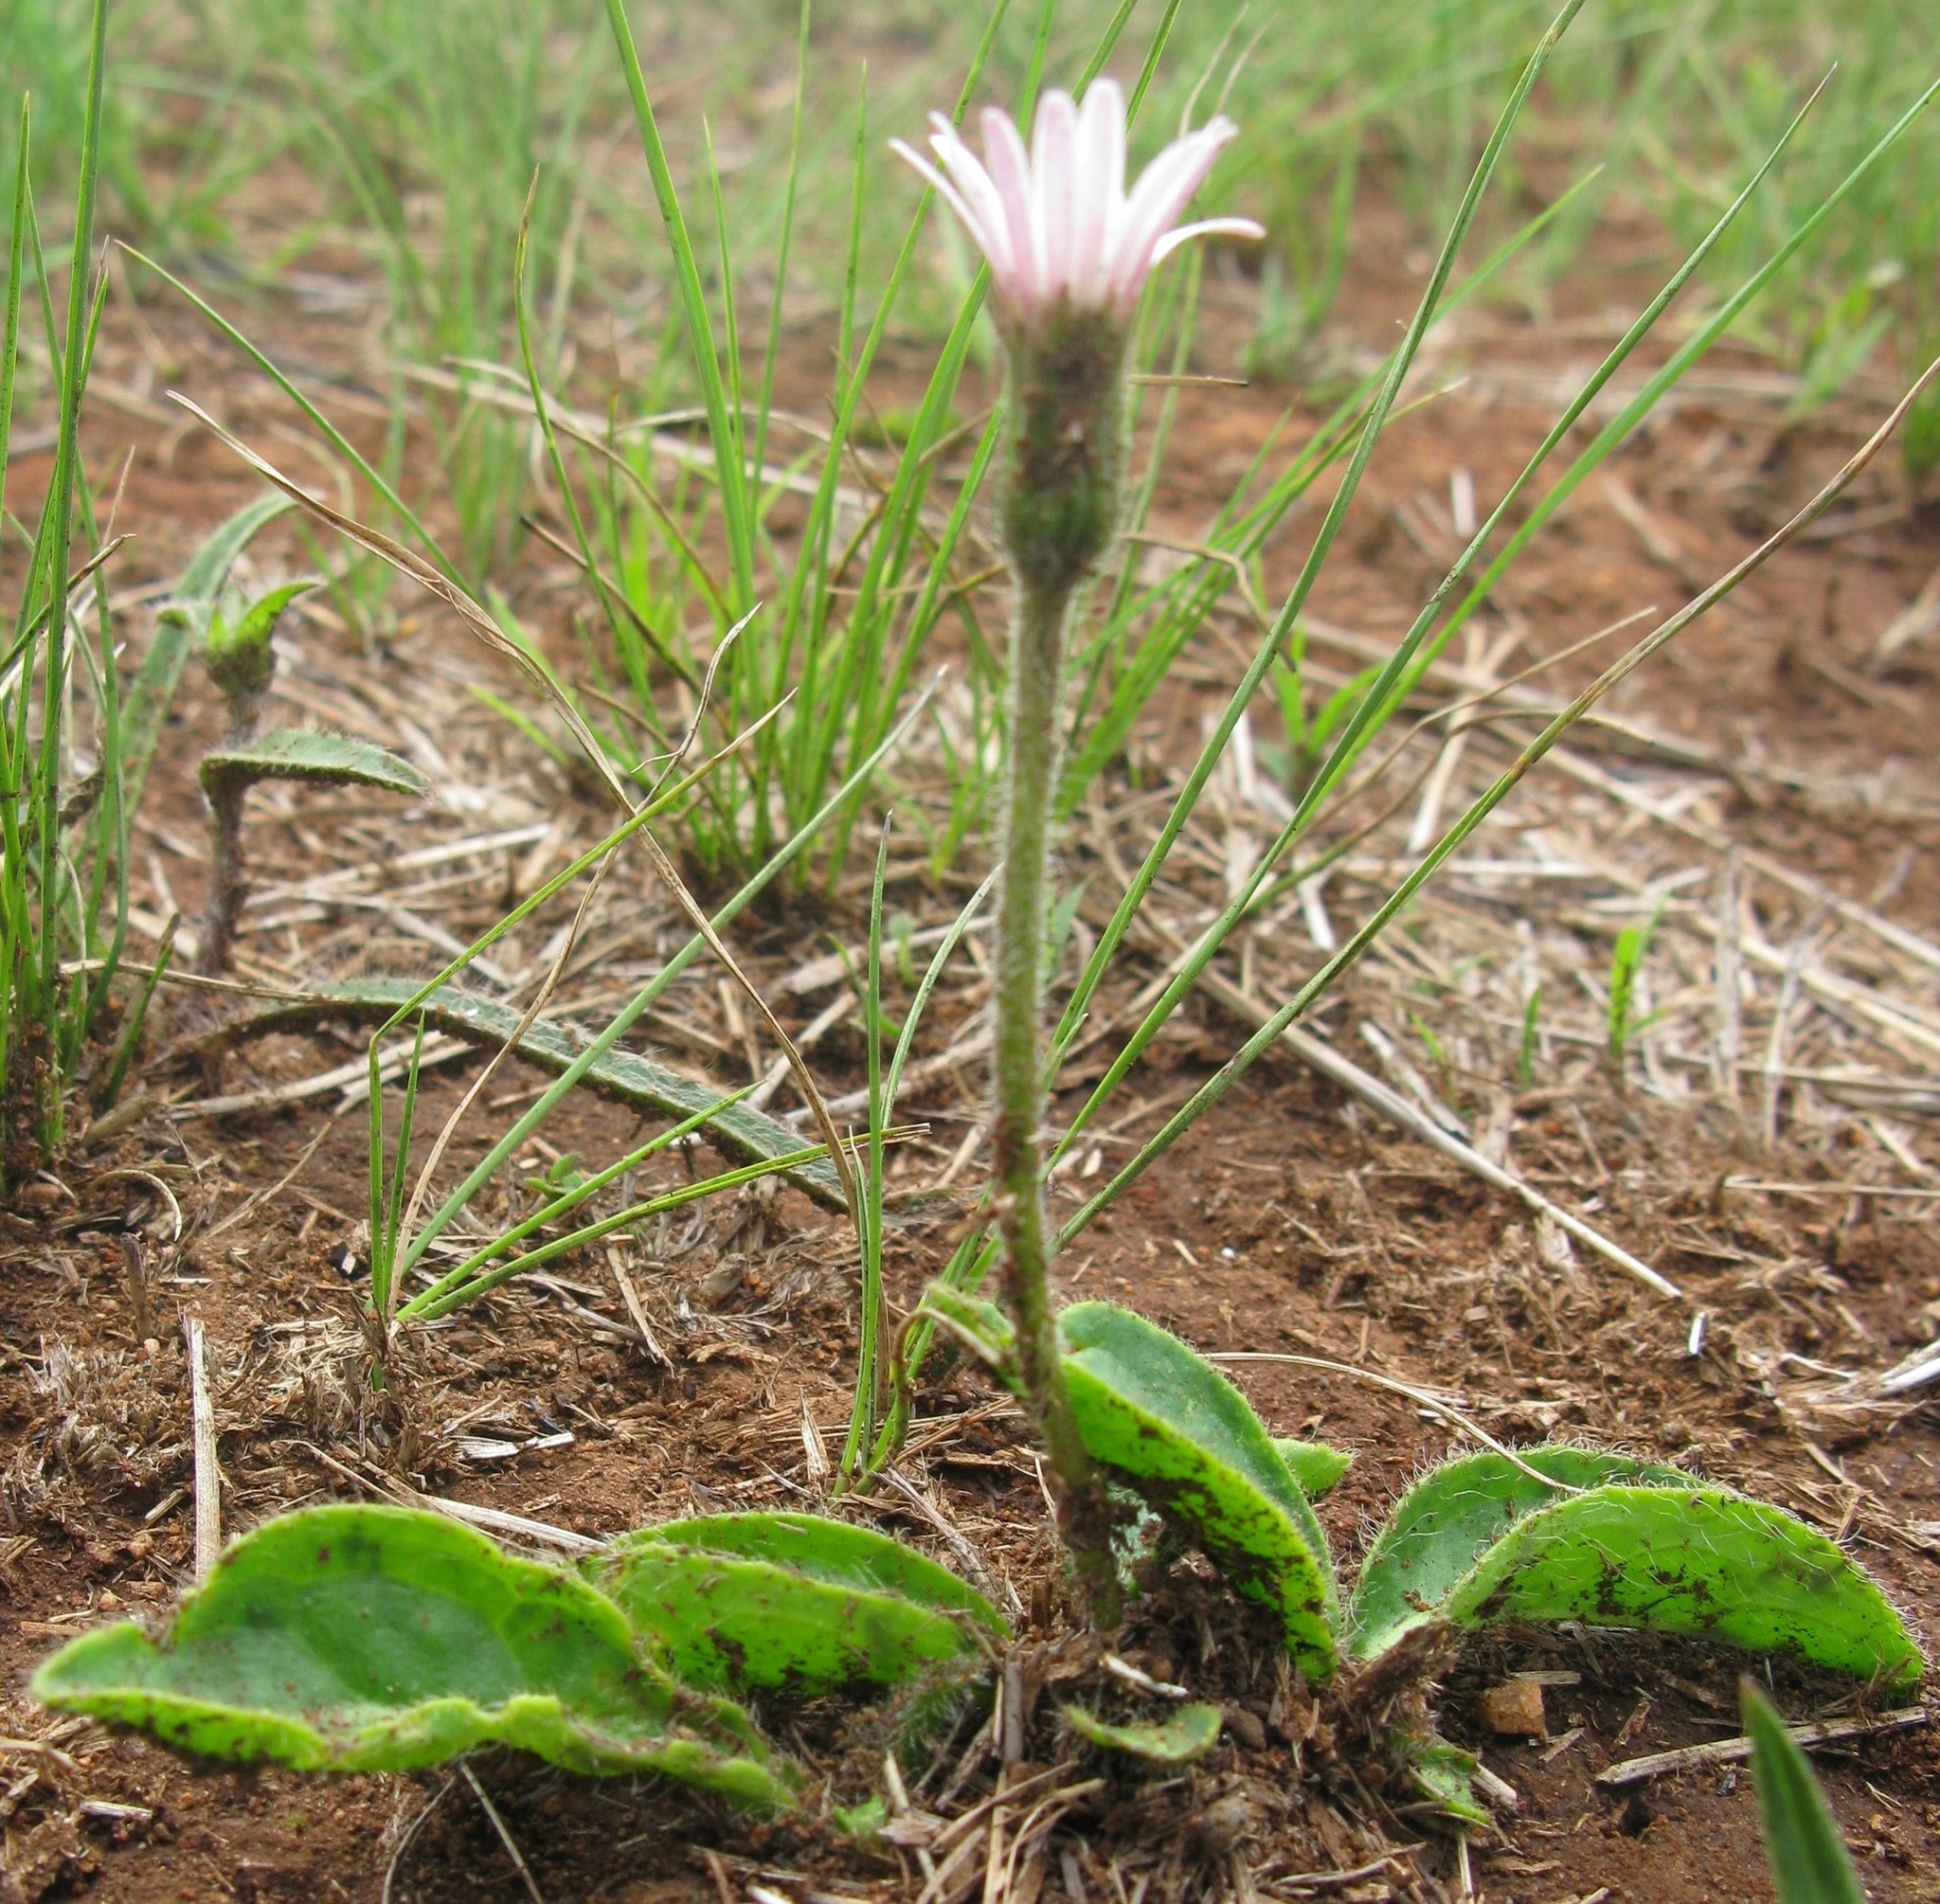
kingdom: Plantae
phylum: Tracheophyta
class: Magnoliopsida
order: Asterales
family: Asteraceae
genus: Gerbera
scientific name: Gerbera ambigua
